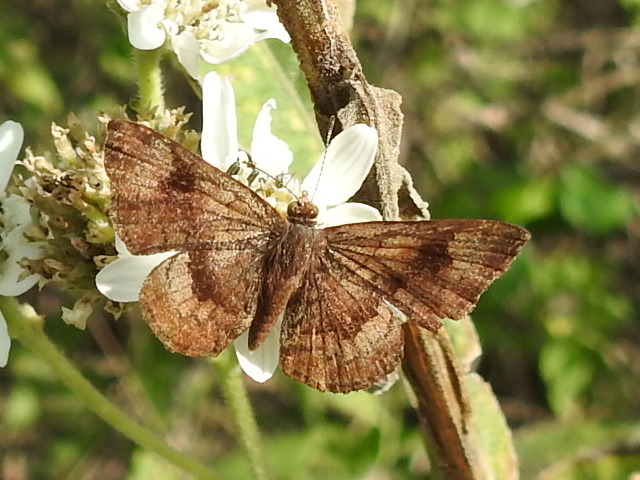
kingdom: Animalia
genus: Calephelis
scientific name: Calephelis nemesis
